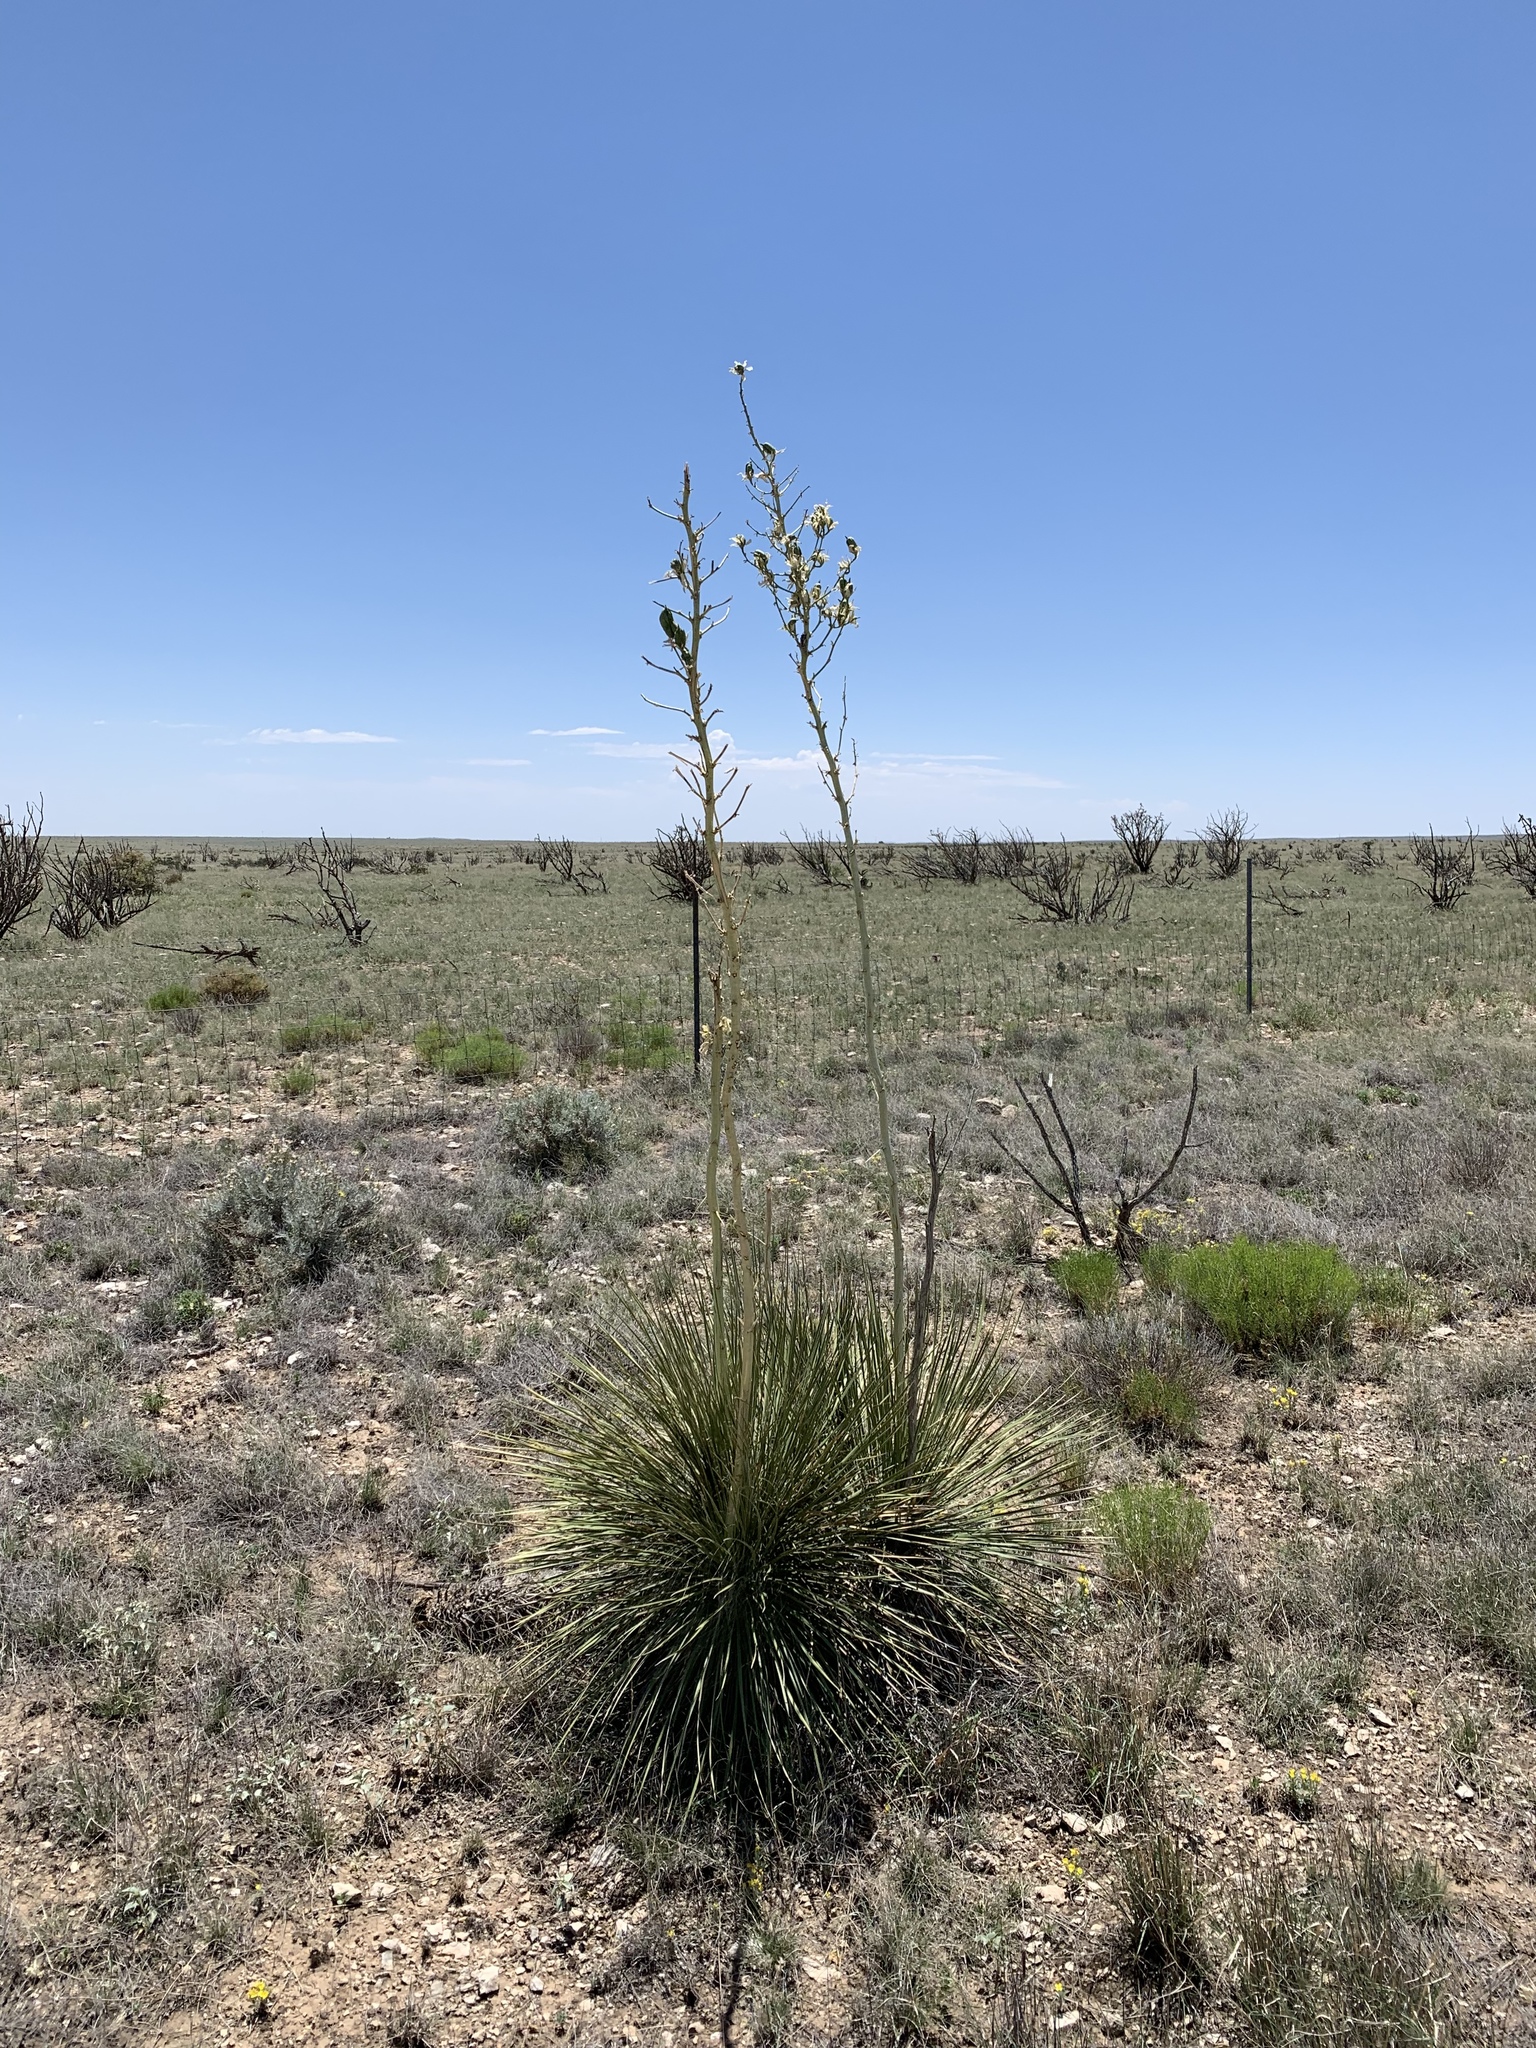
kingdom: Plantae
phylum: Tracheophyta
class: Liliopsida
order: Asparagales
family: Asparagaceae
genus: Yucca
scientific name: Yucca elata
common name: Palmella
